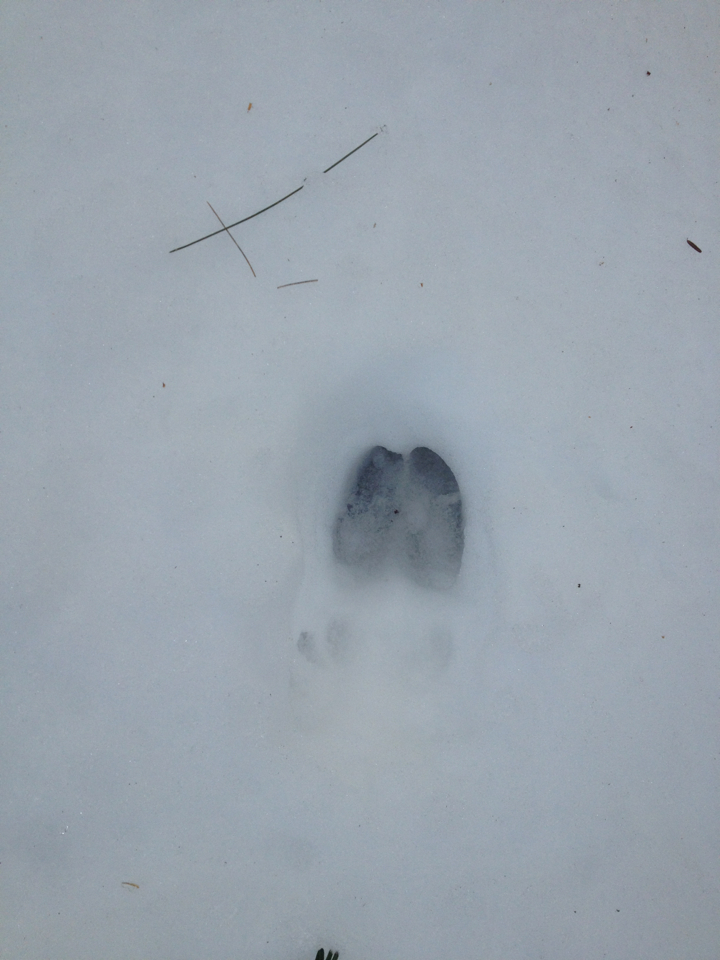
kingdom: Animalia
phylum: Chordata
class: Mammalia
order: Artiodactyla
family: Cervidae
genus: Odocoileus
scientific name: Odocoileus virginianus
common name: White-tailed deer
